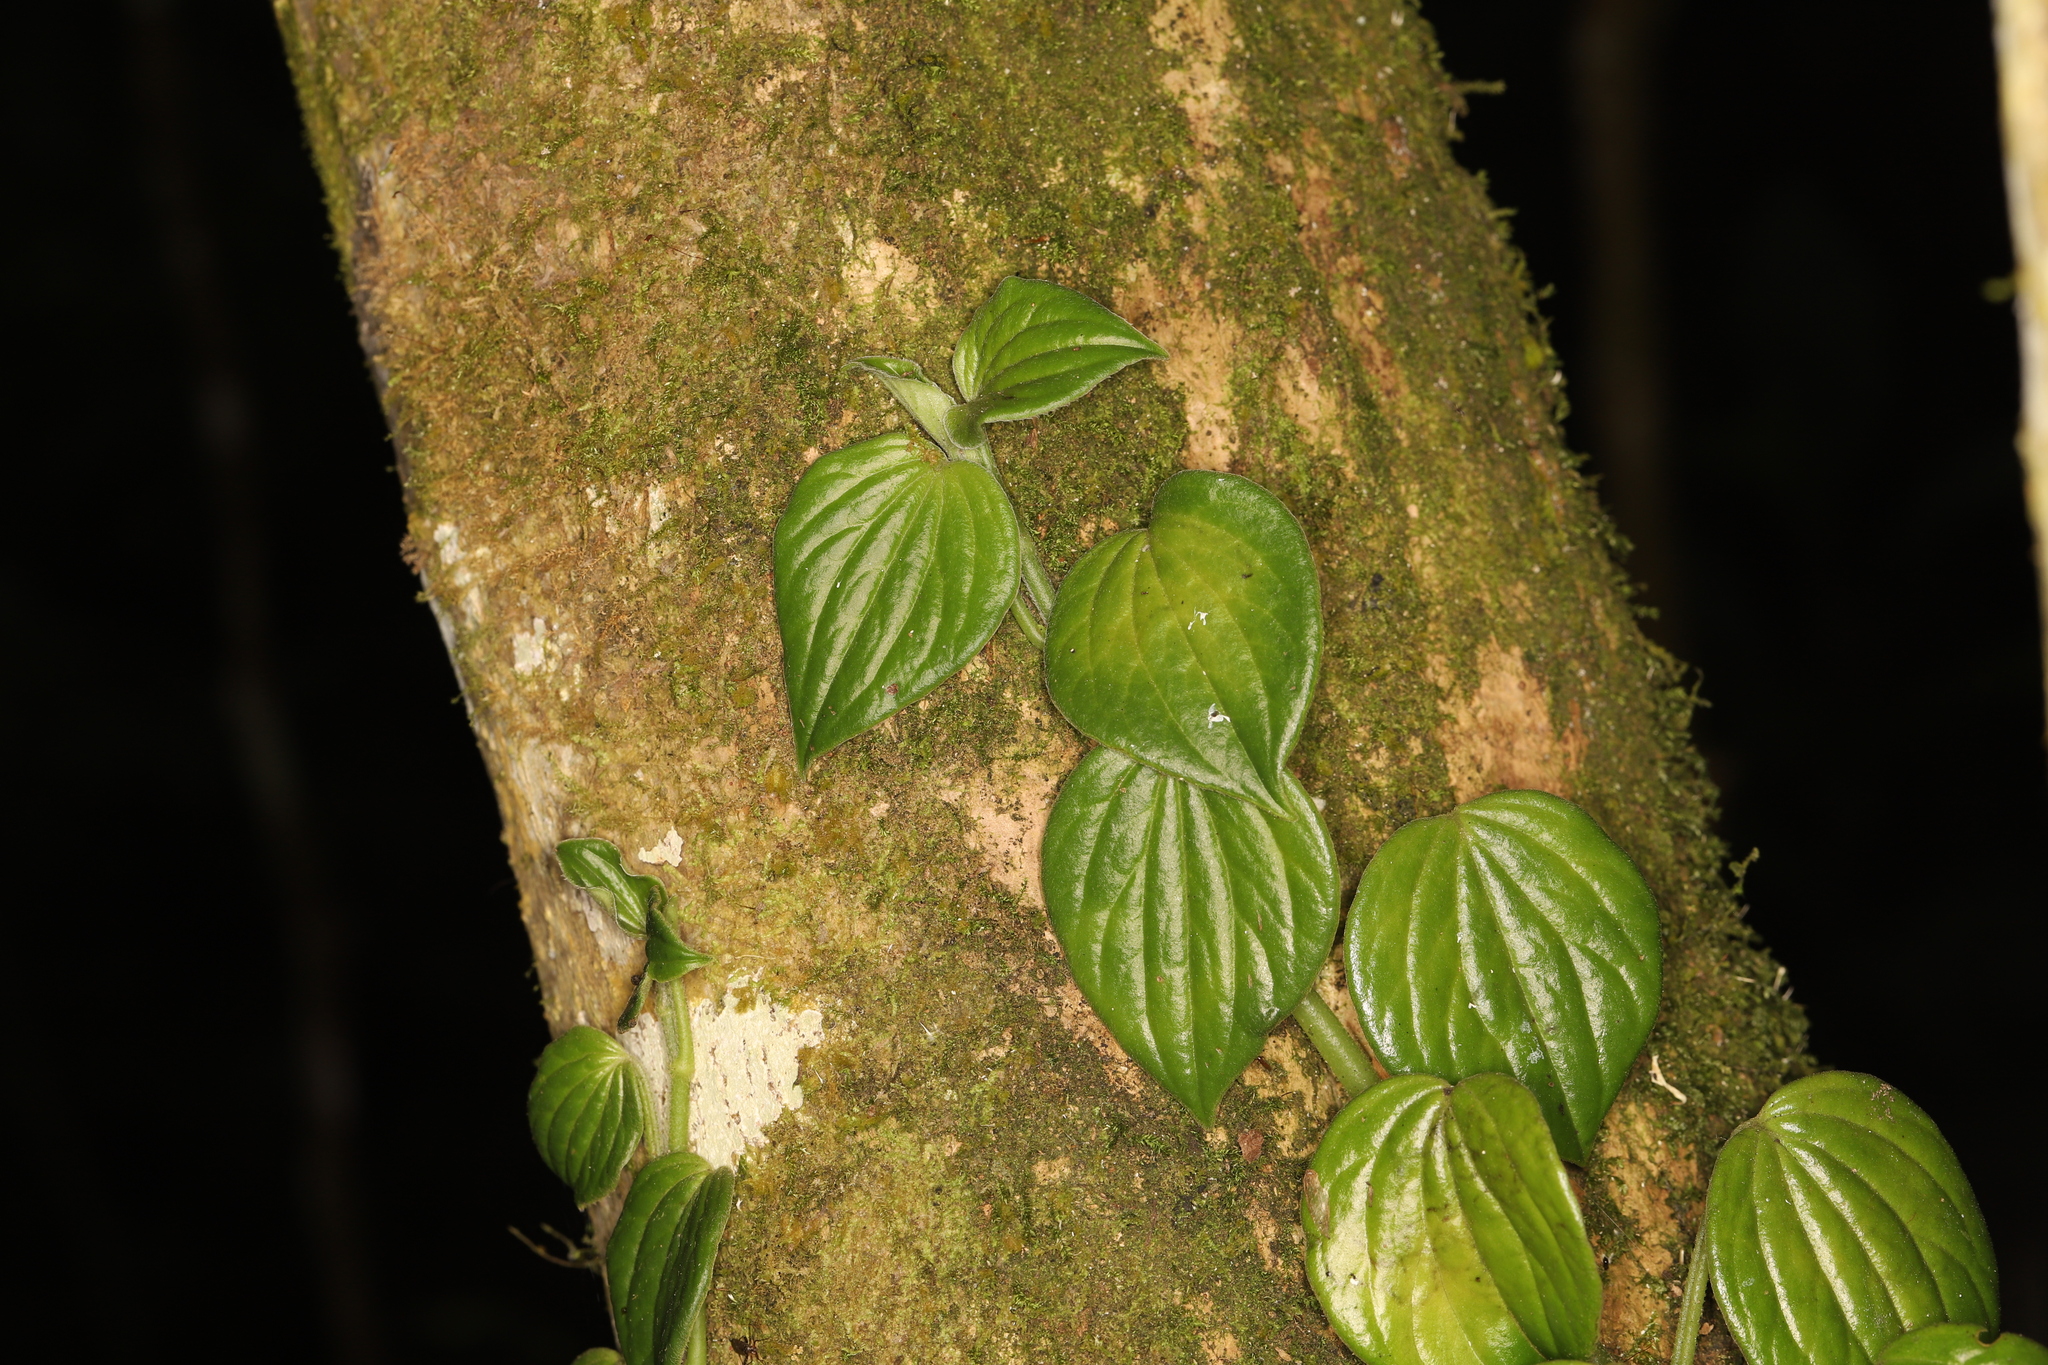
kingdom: Plantae
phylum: Tracheophyta
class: Magnoliopsida
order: Piperales
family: Piperaceae
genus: Peperomia
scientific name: Peperomia peltoidea
